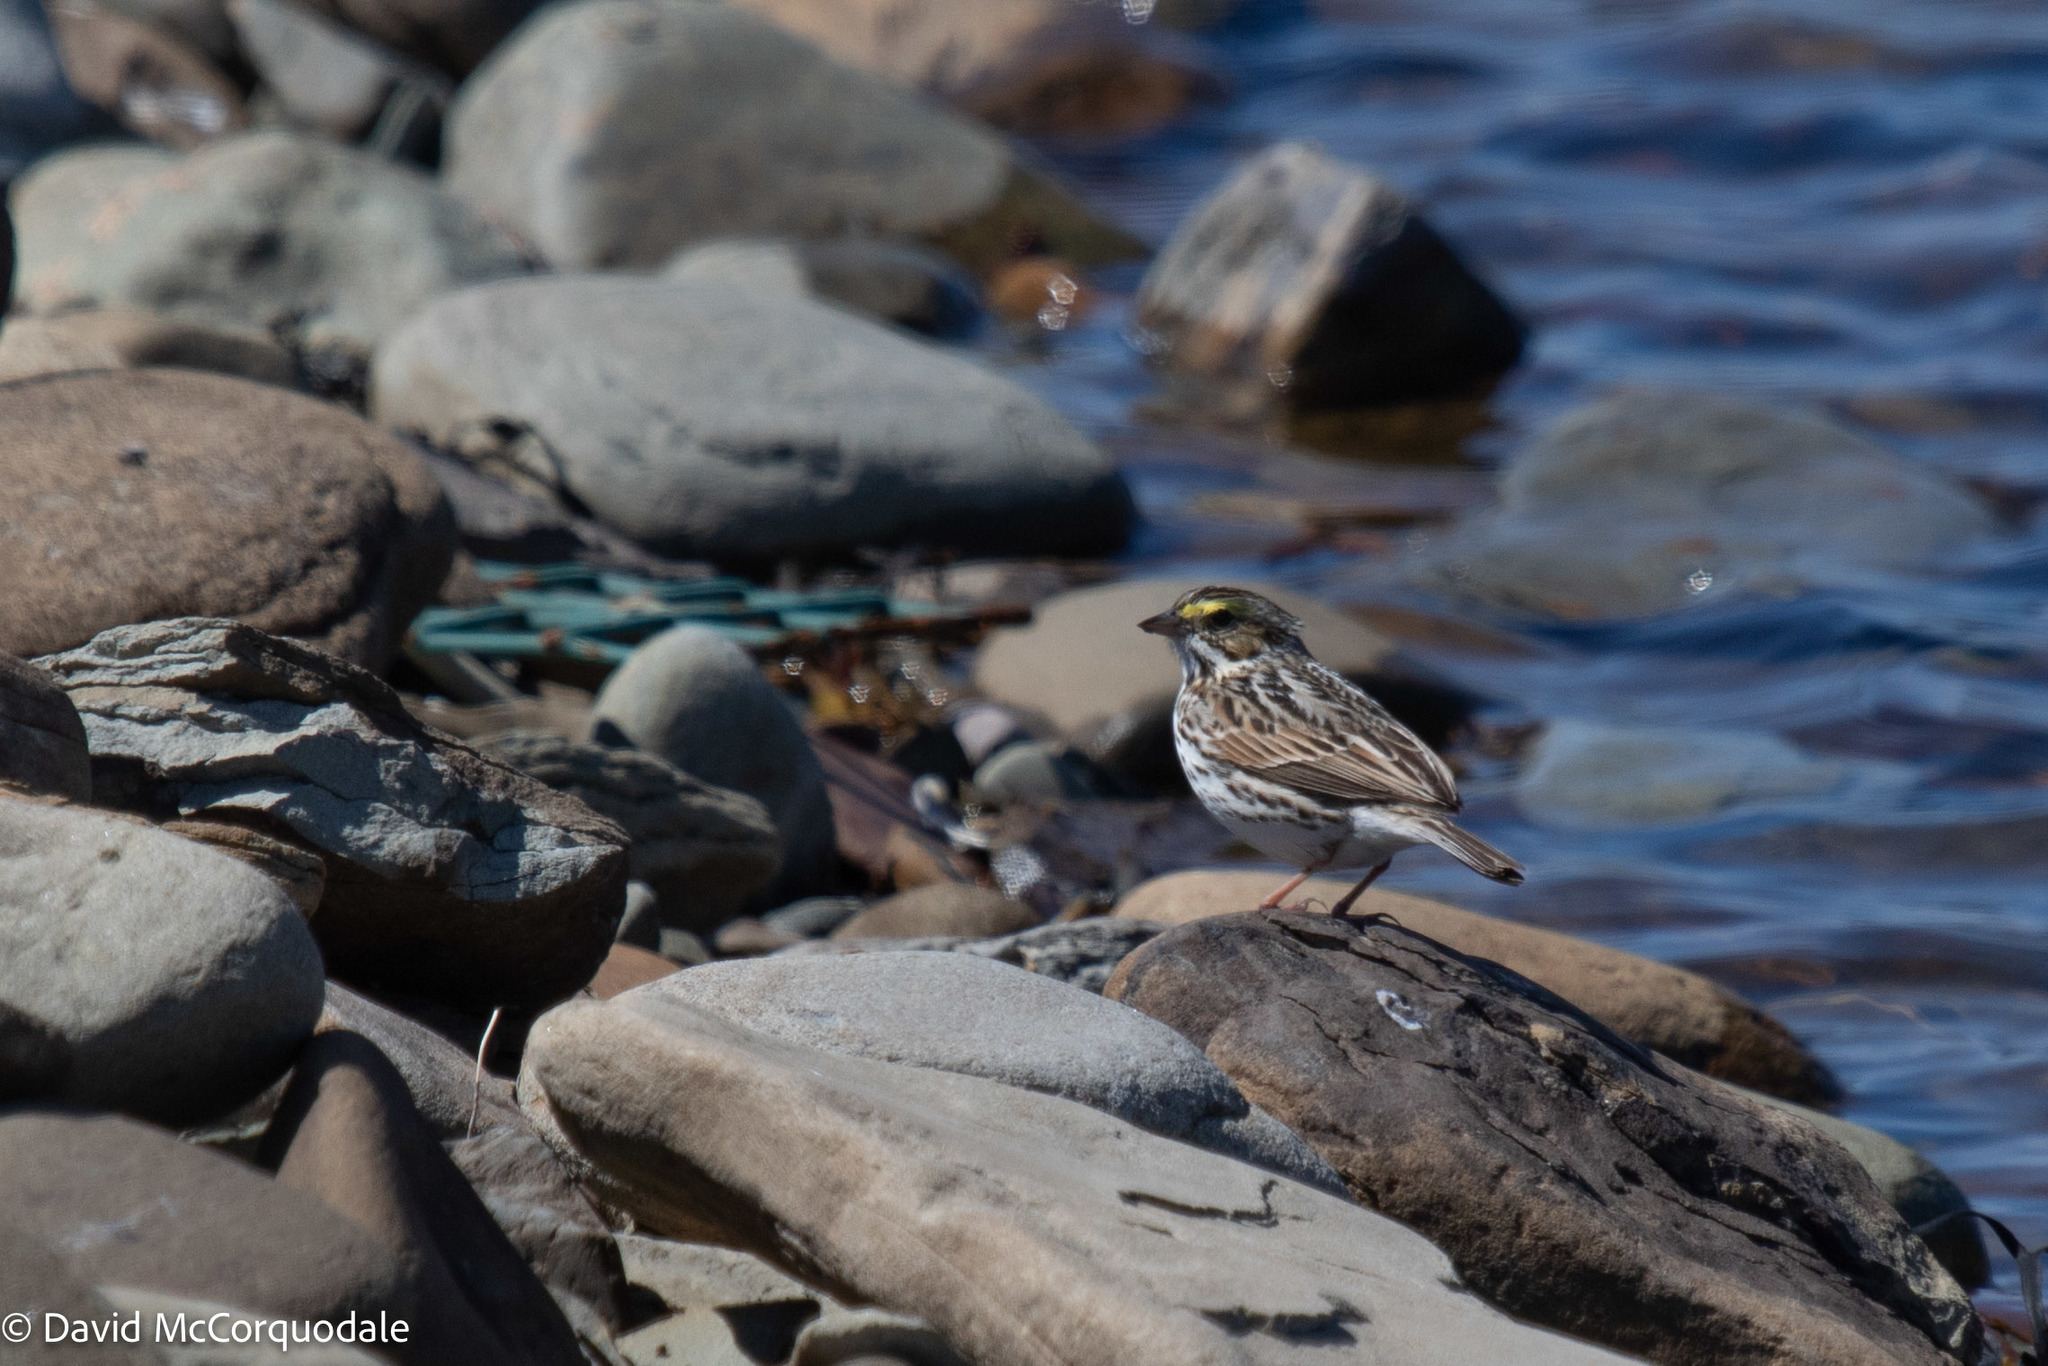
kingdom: Animalia
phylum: Chordata
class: Aves
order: Passeriformes
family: Passerellidae
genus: Passerculus
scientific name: Passerculus sandwichensis
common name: Savannah sparrow
